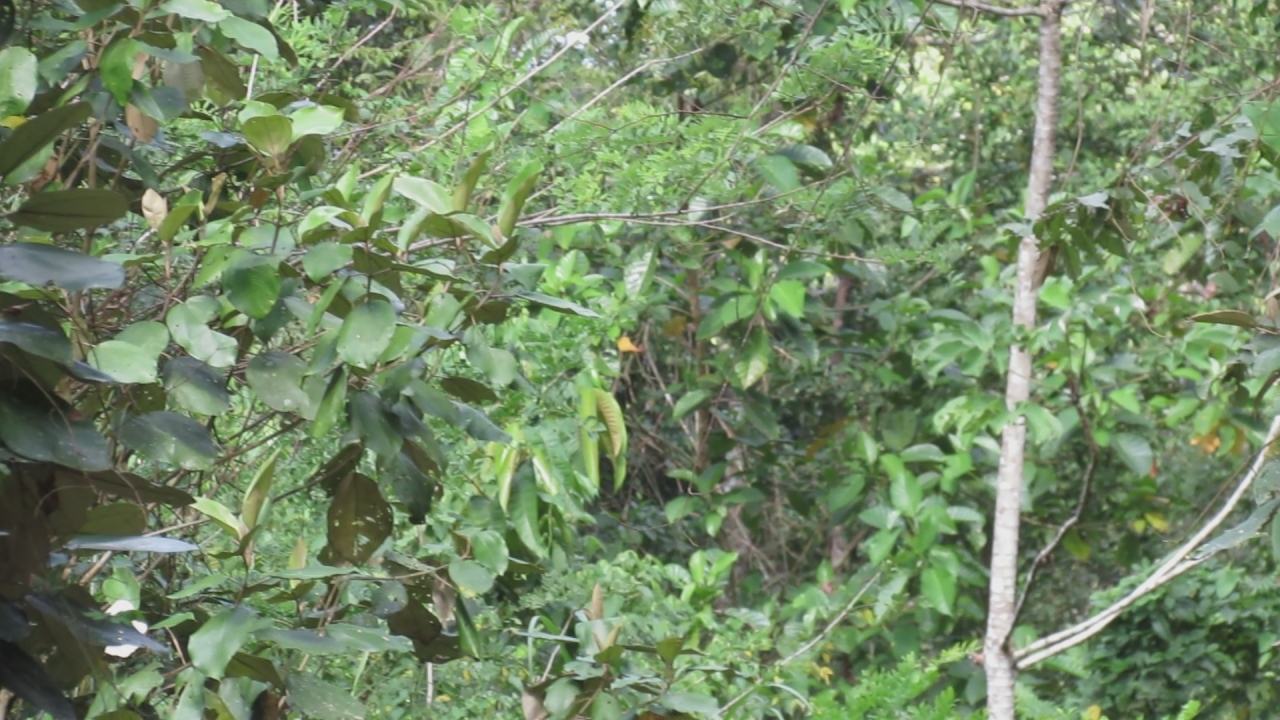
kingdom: Animalia
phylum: Arthropoda
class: Insecta
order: Lepidoptera
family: Nymphalidae
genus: Morpho
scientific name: Morpho amathonte
